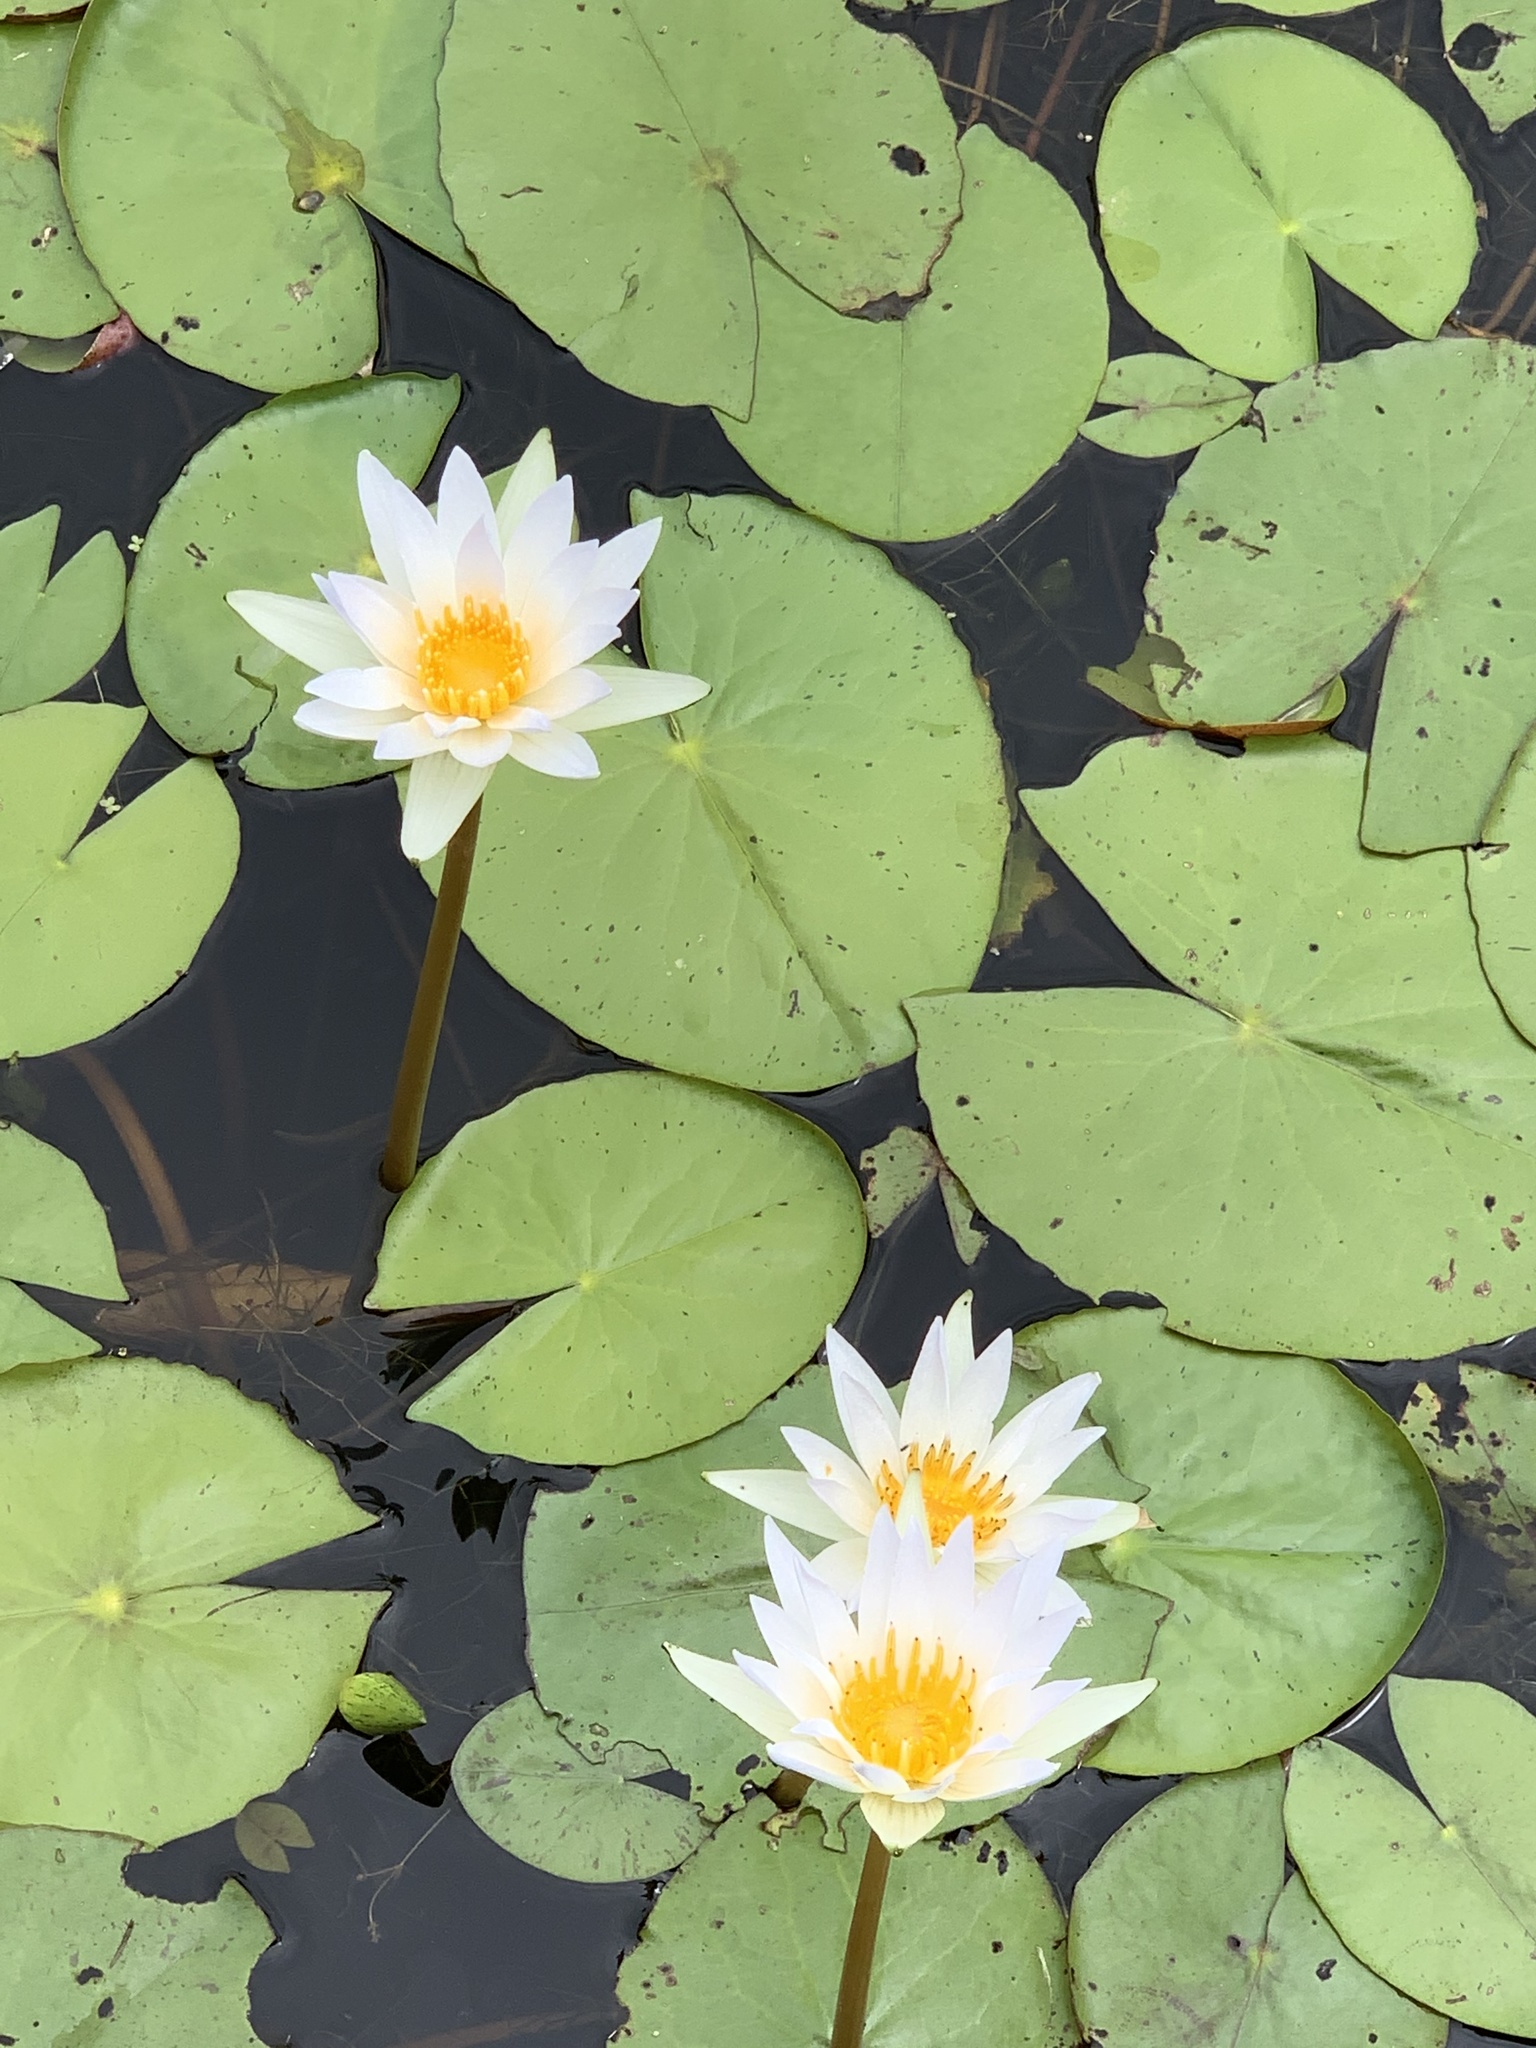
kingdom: Plantae
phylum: Tracheophyta
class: Magnoliopsida
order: Nymphaeales
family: Nymphaeaceae
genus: Nymphaea
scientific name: Nymphaea odorata
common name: Fragrant water-lily
